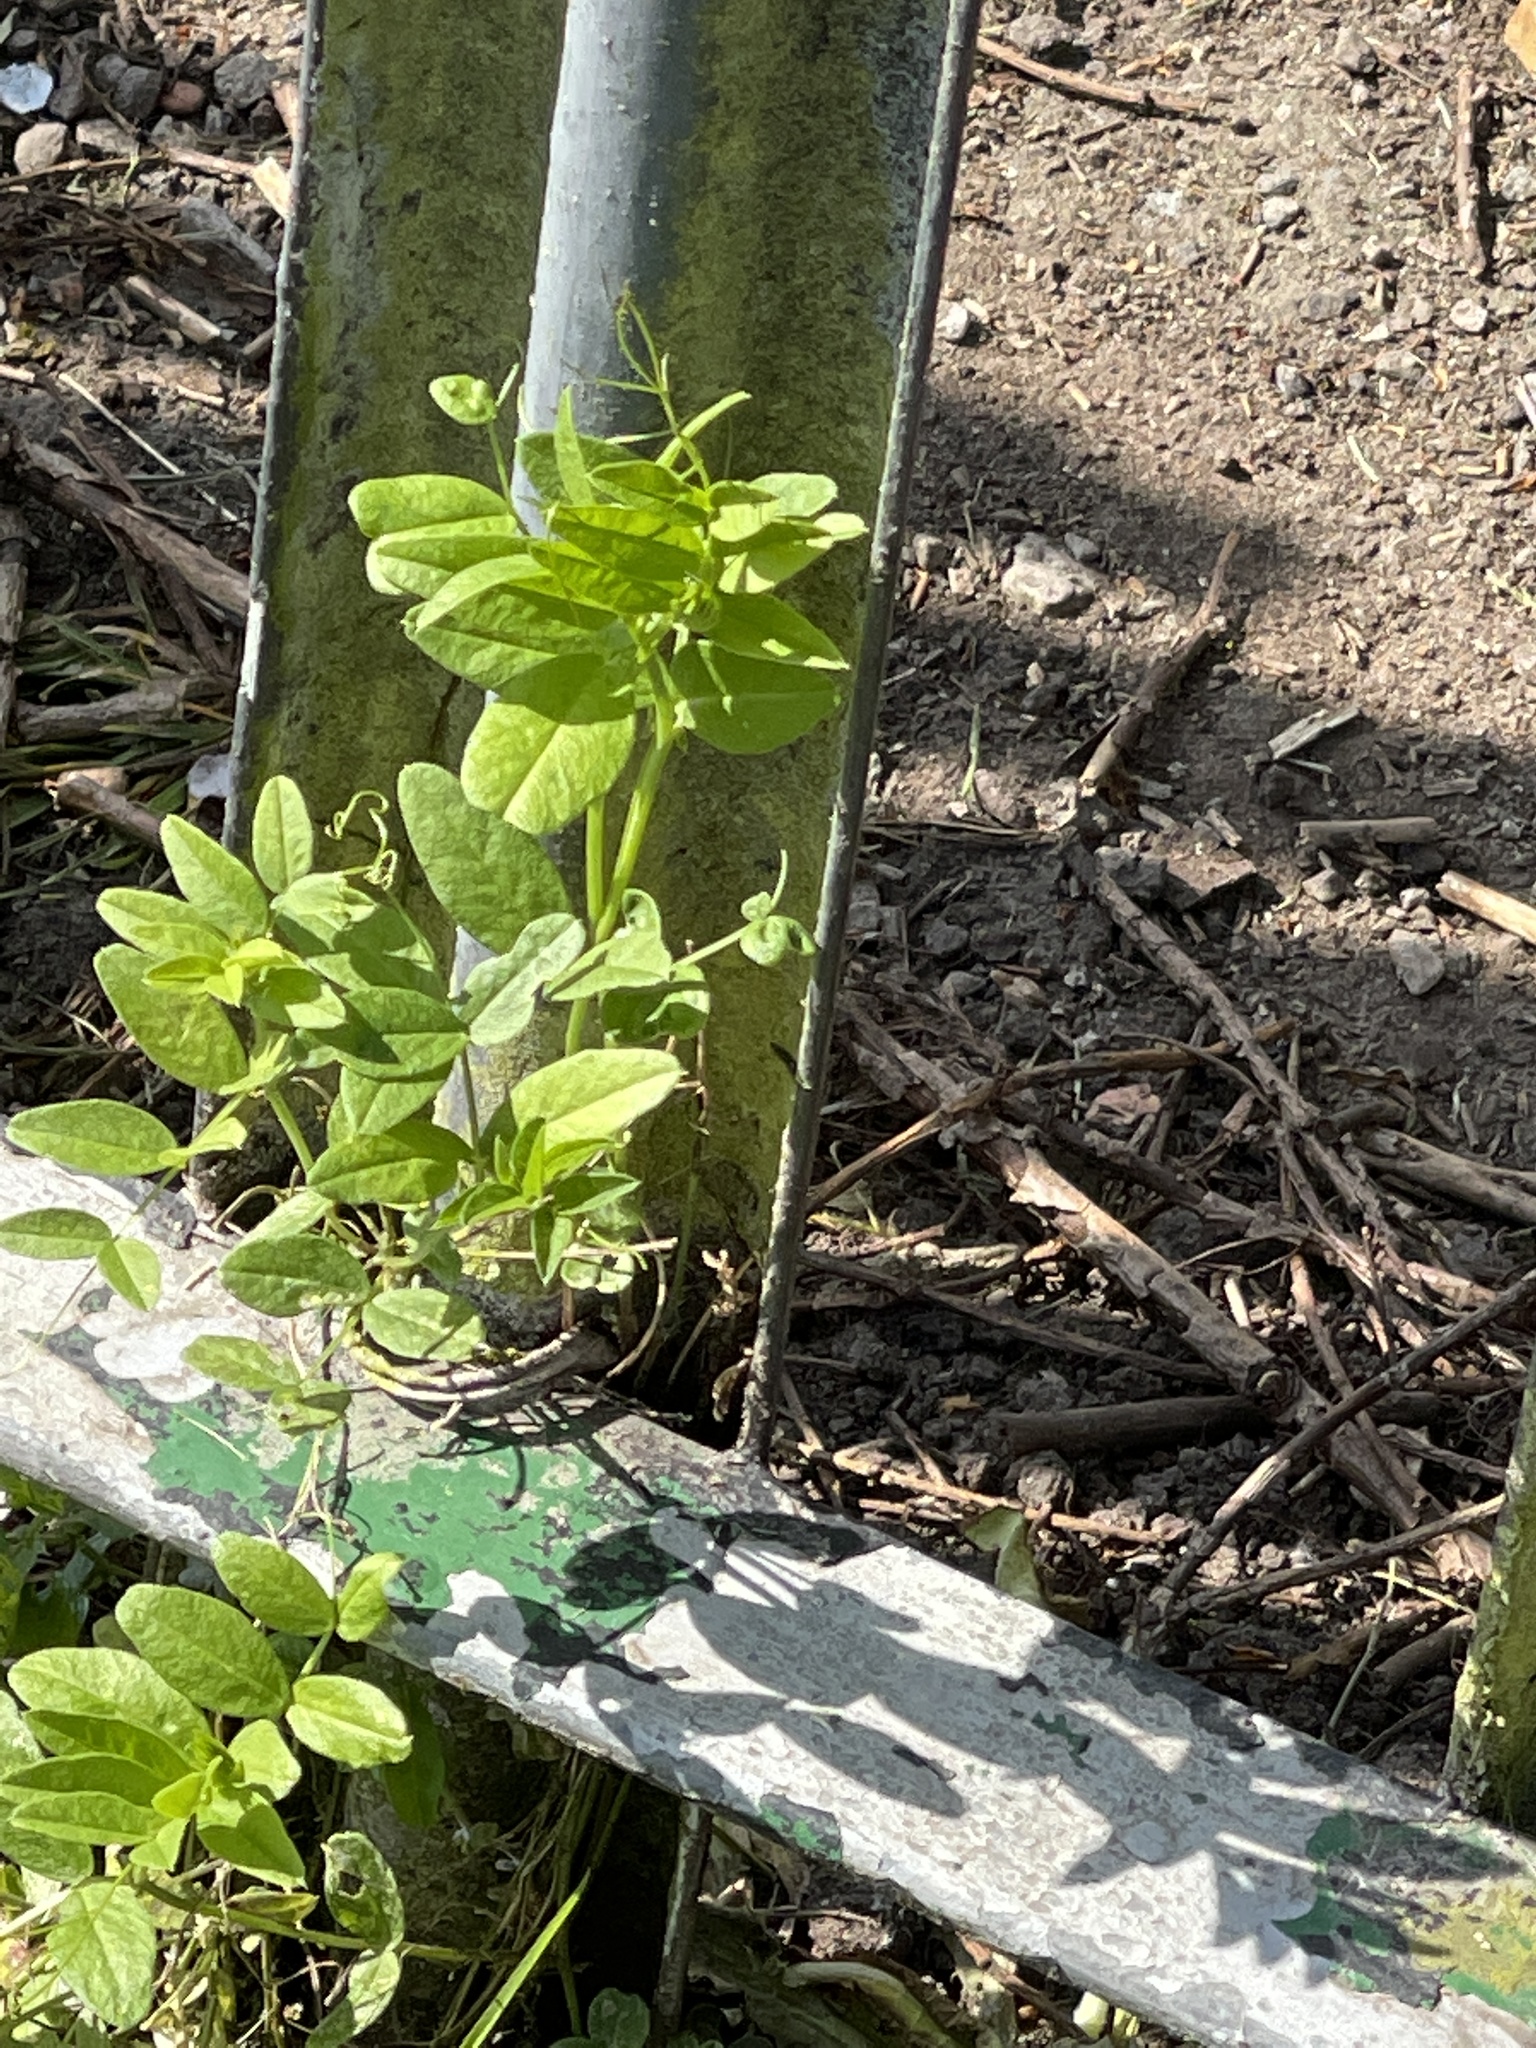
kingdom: Plantae
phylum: Tracheophyta
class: Magnoliopsida
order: Fabales
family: Fabaceae
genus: Vicia
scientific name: Vicia sepium
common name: Bush vetch
